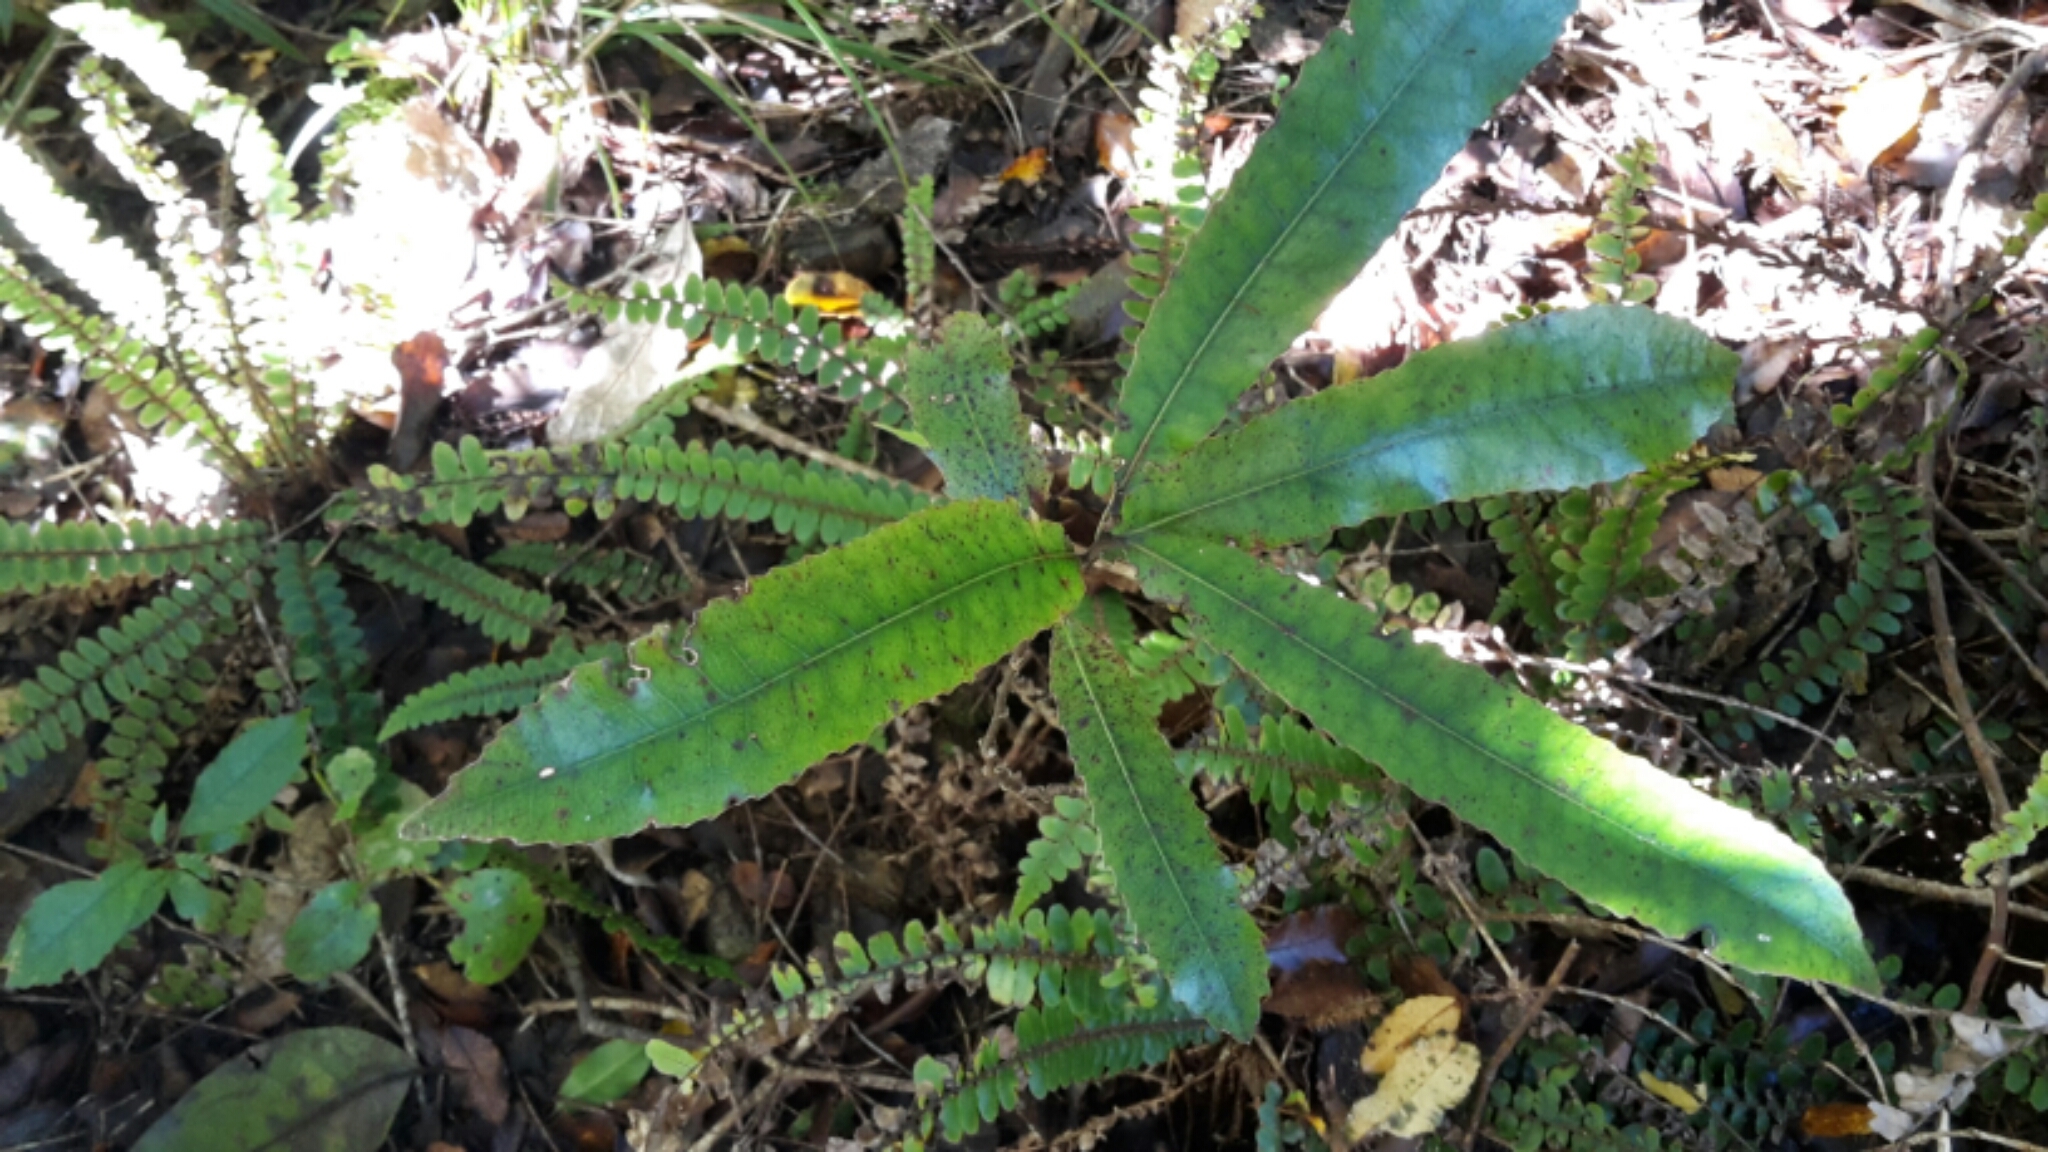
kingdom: Plantae
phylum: Tracheophyta
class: Magnoliopsida
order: Oxalidales
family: Elaeocarpaceae
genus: Elaeocarpus
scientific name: Elaeocarpus dentatus
